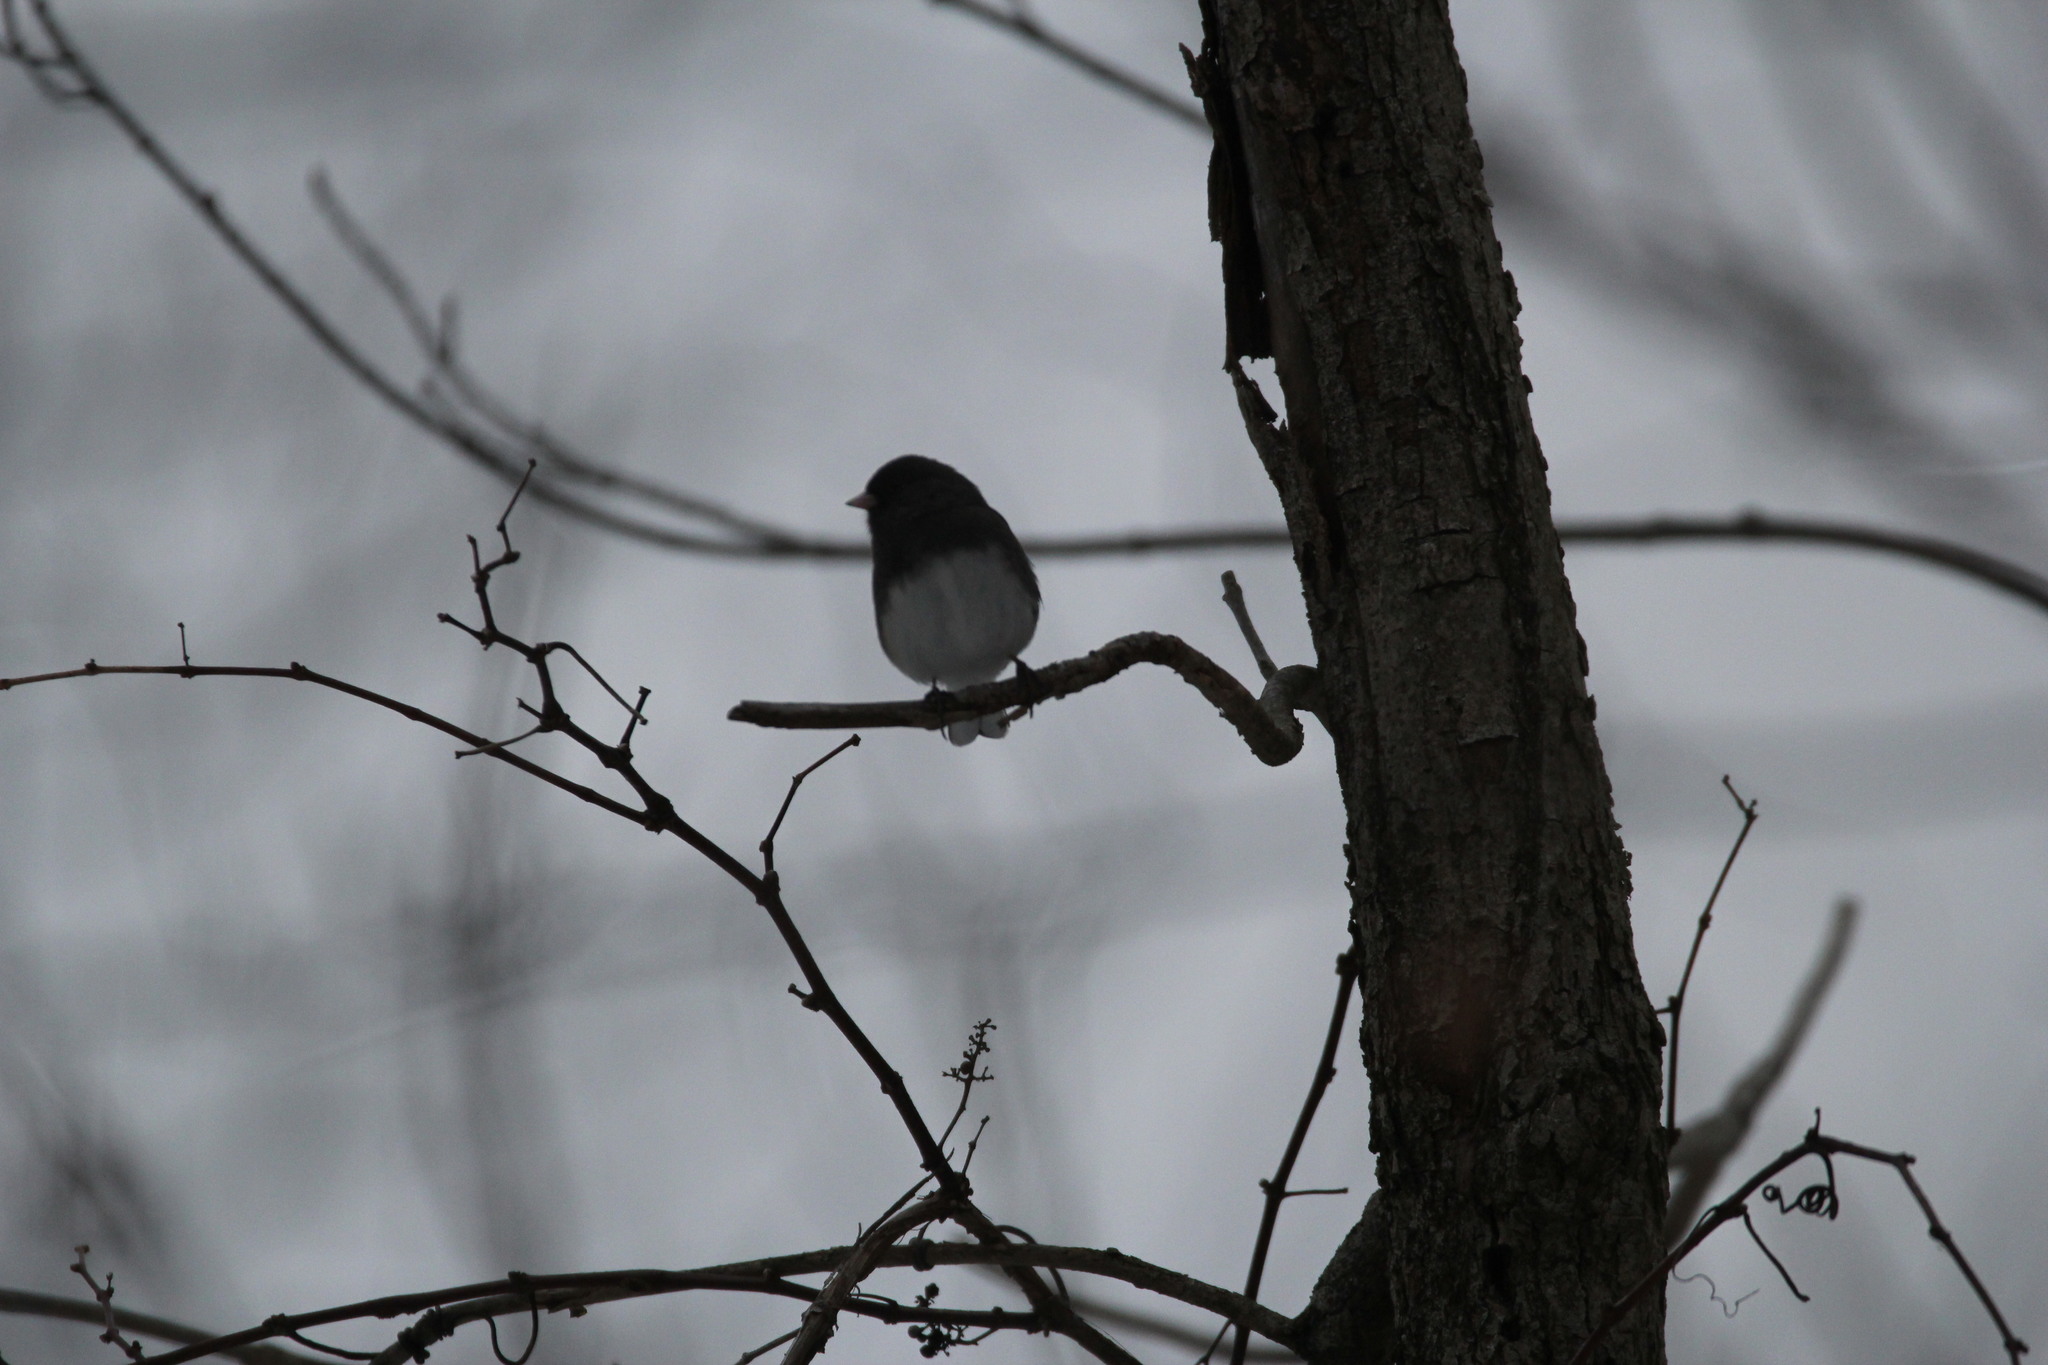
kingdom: Animalia
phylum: Chordata
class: Aves
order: Passeriformes
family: Passerellidae
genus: Junco
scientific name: Junco hyemalis
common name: Dark-eyed junco
